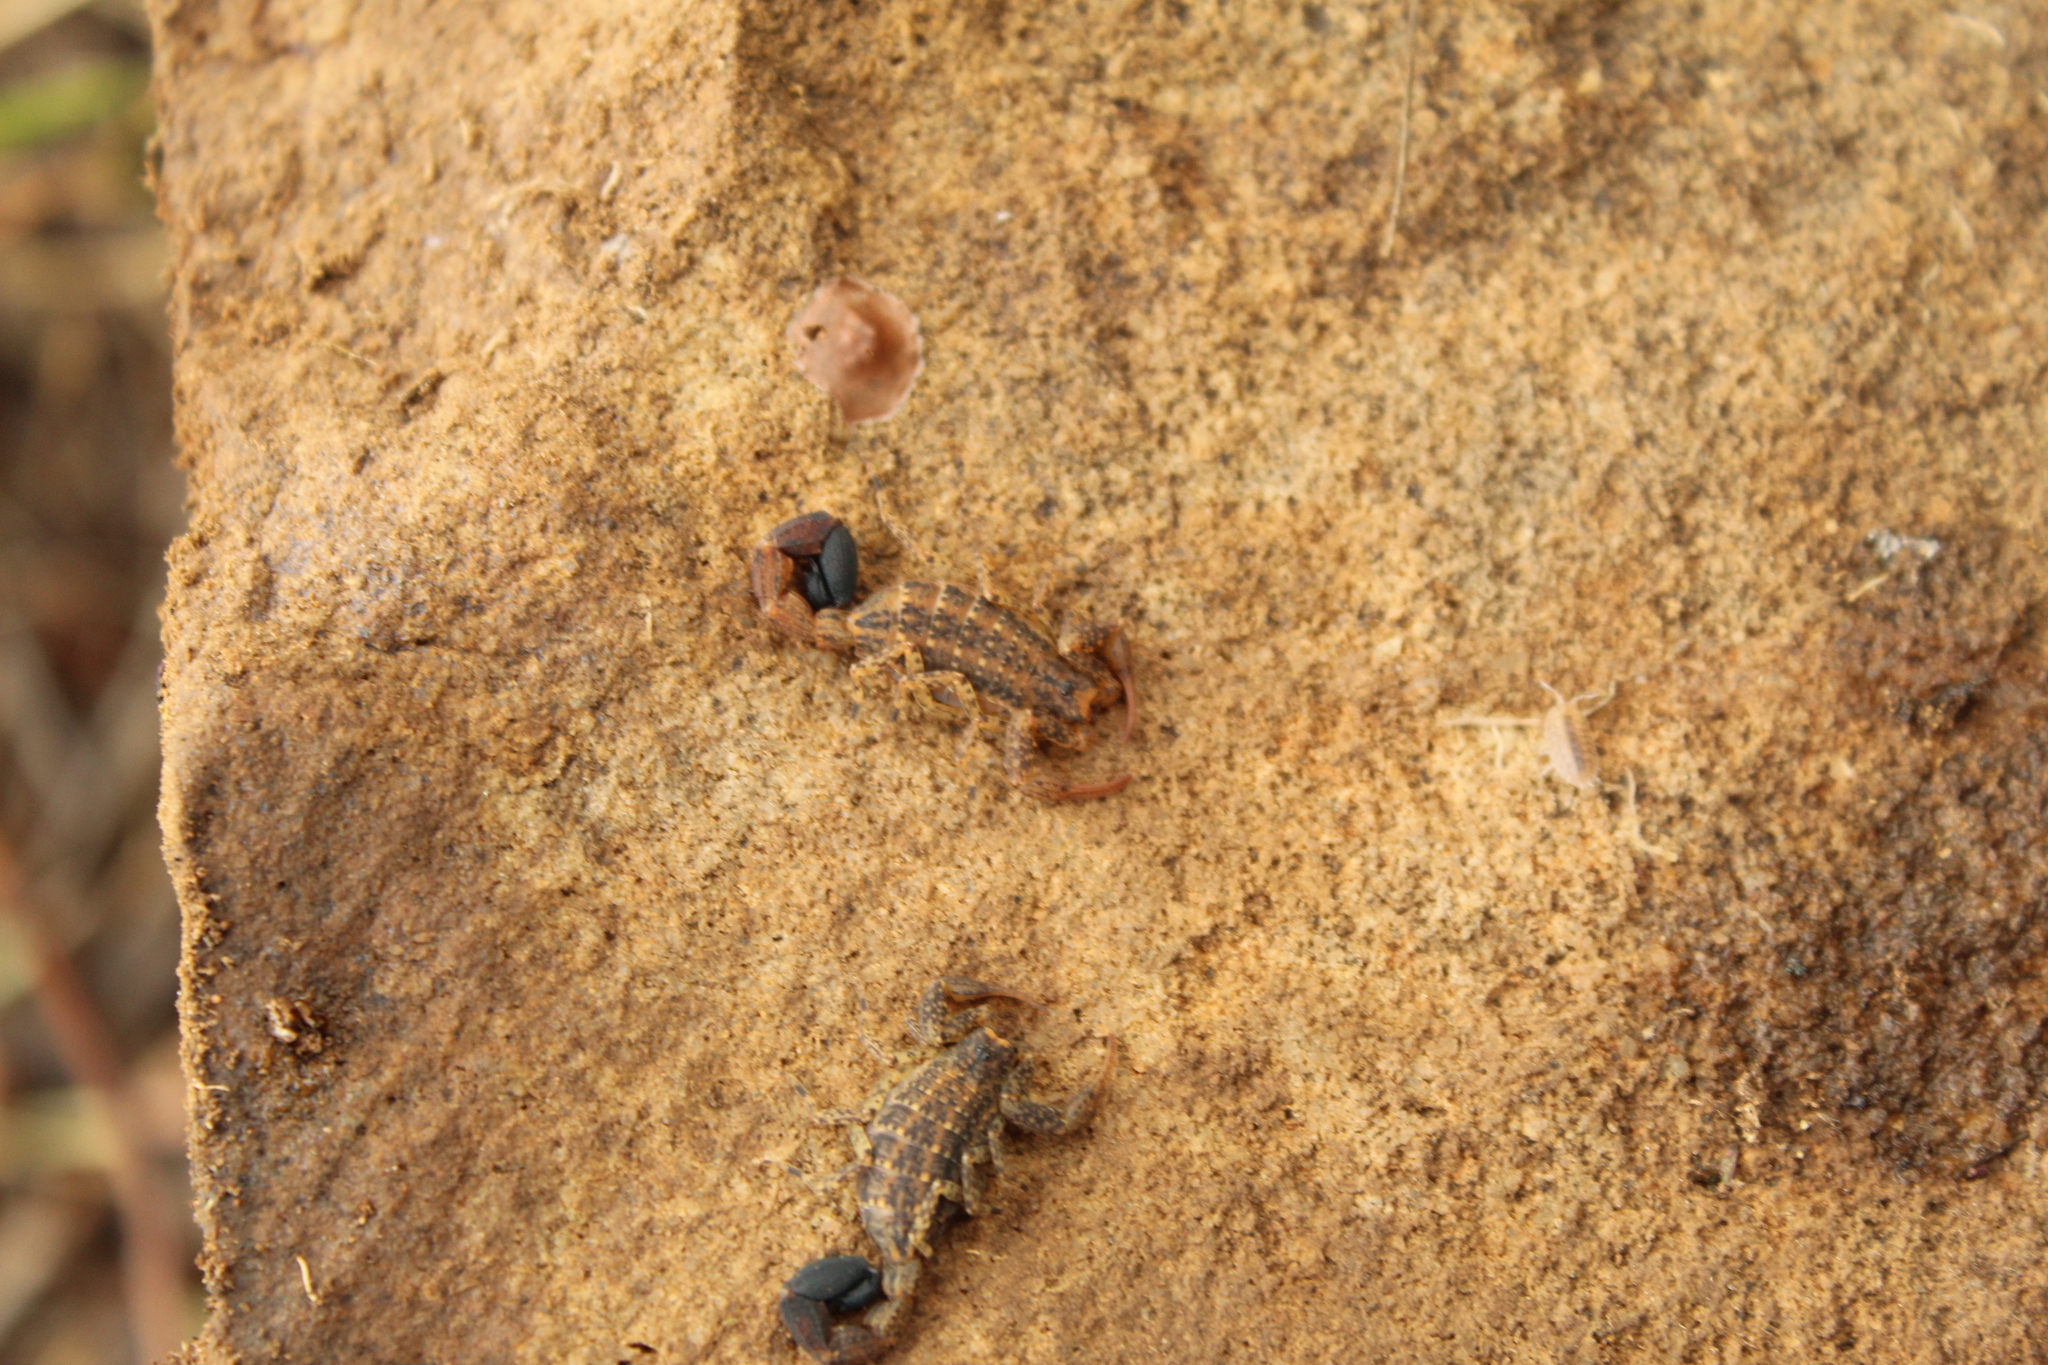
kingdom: Animalia
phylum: Arthropoda
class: Arachnida
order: Scorpiones
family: Buthidae
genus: Tityus
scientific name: Tityus columbianus
